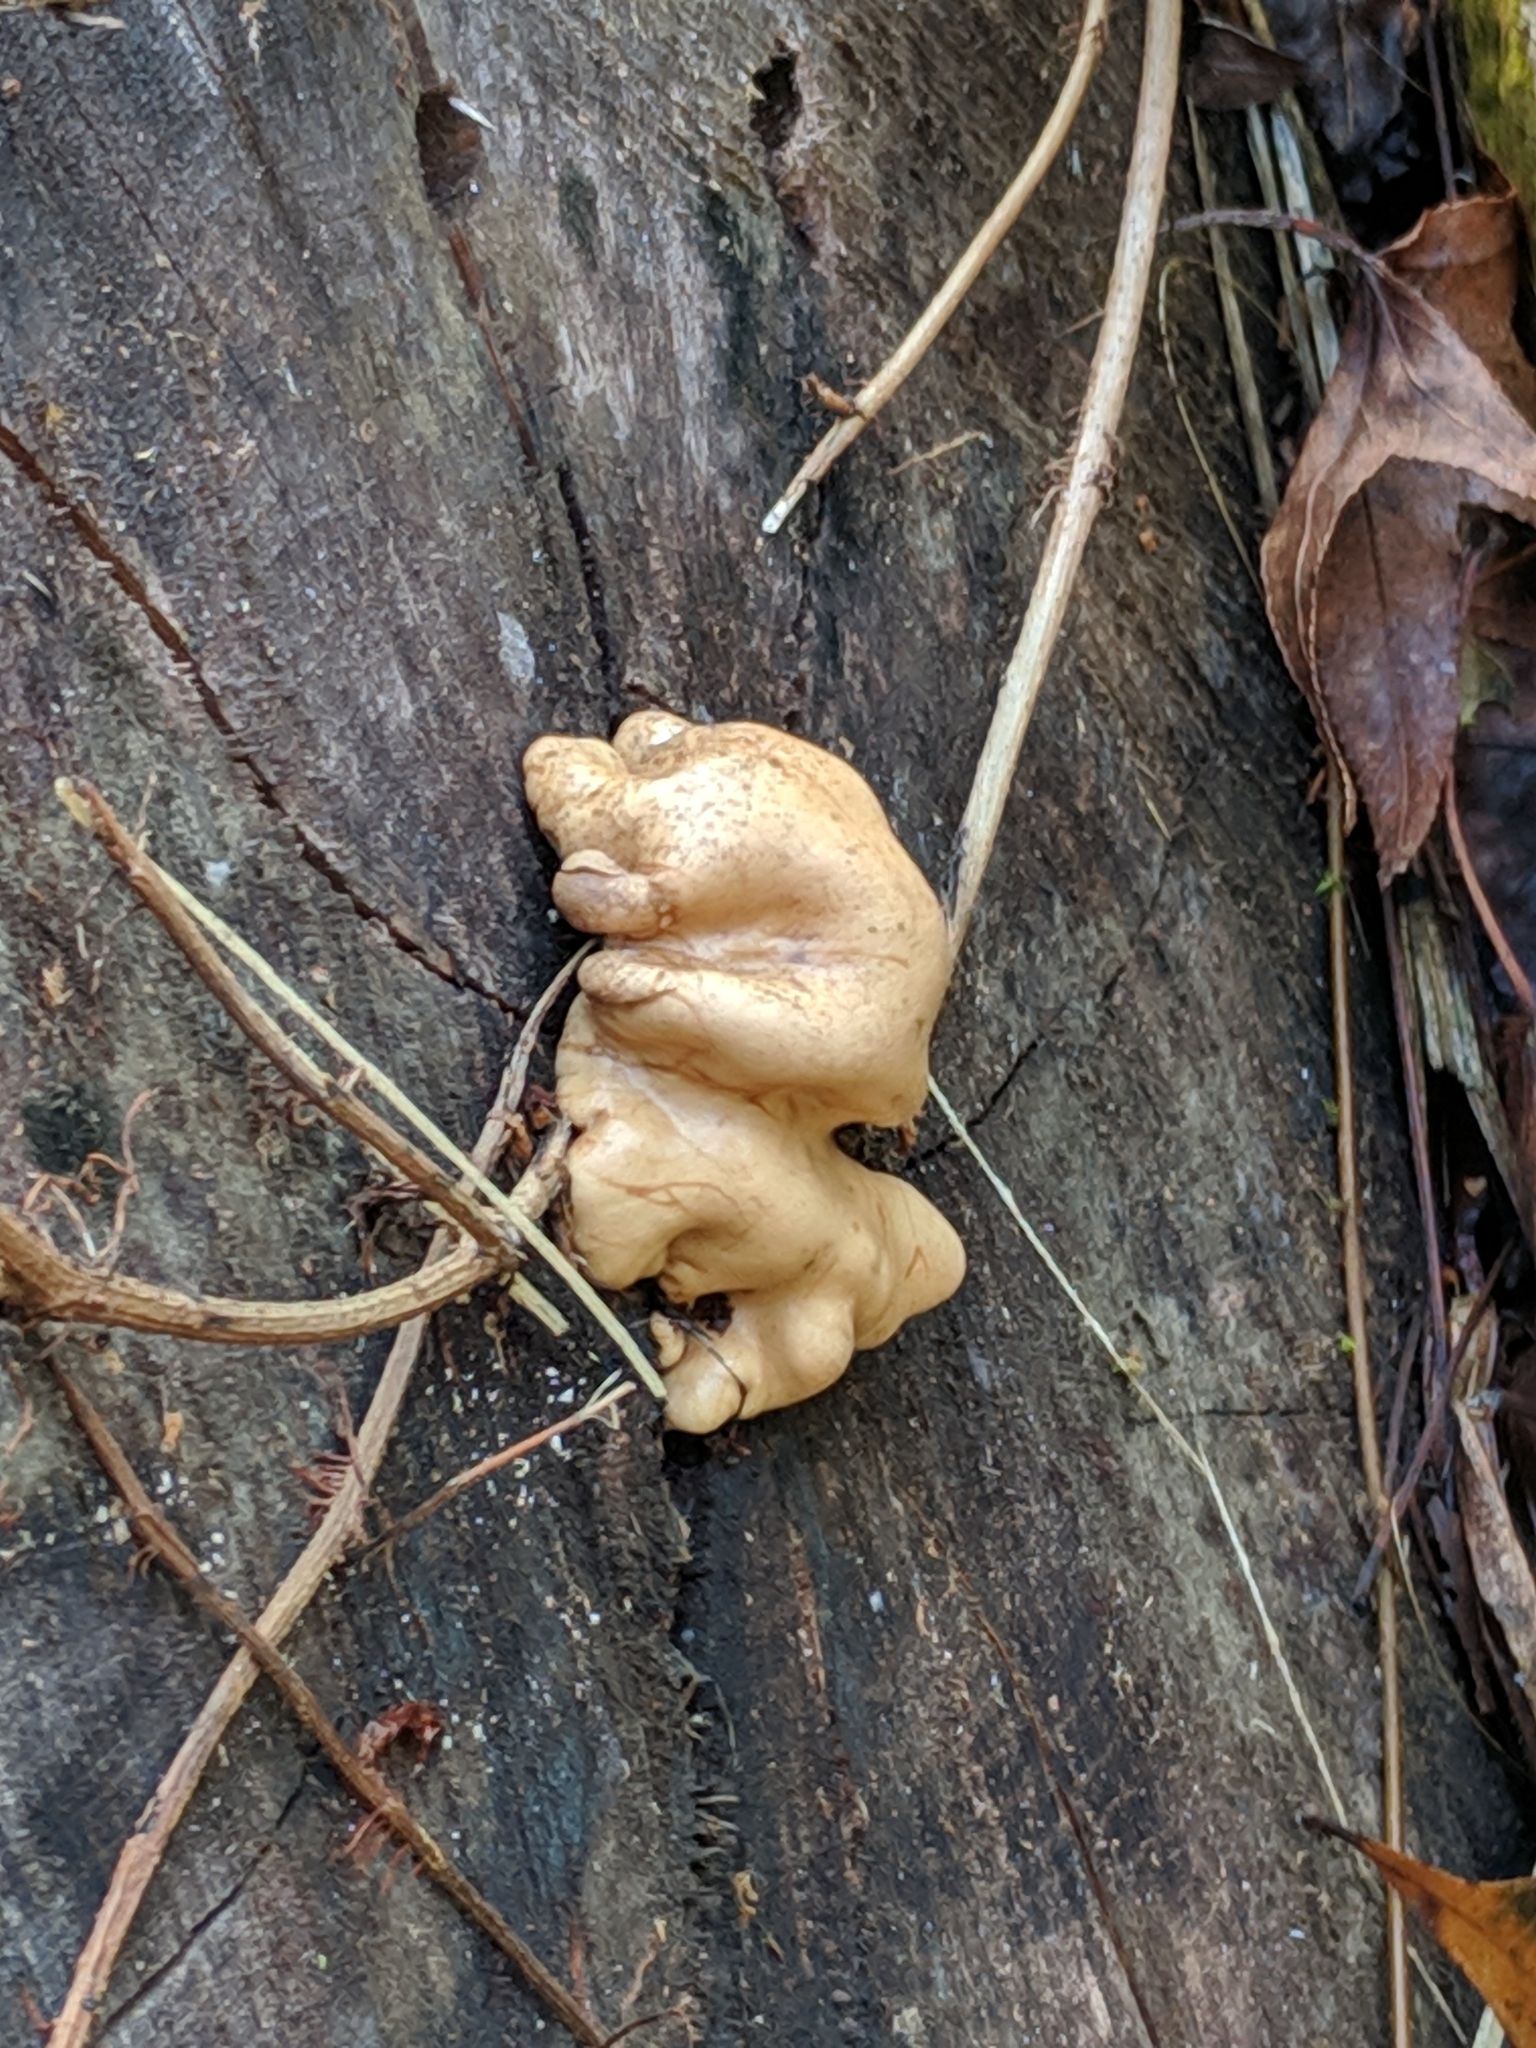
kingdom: Fungi
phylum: Ascomycota
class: Sordariomycetes
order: Hypocreales
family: Hypocreaceae
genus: Trichoderma
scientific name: Trichoderma peltatum
